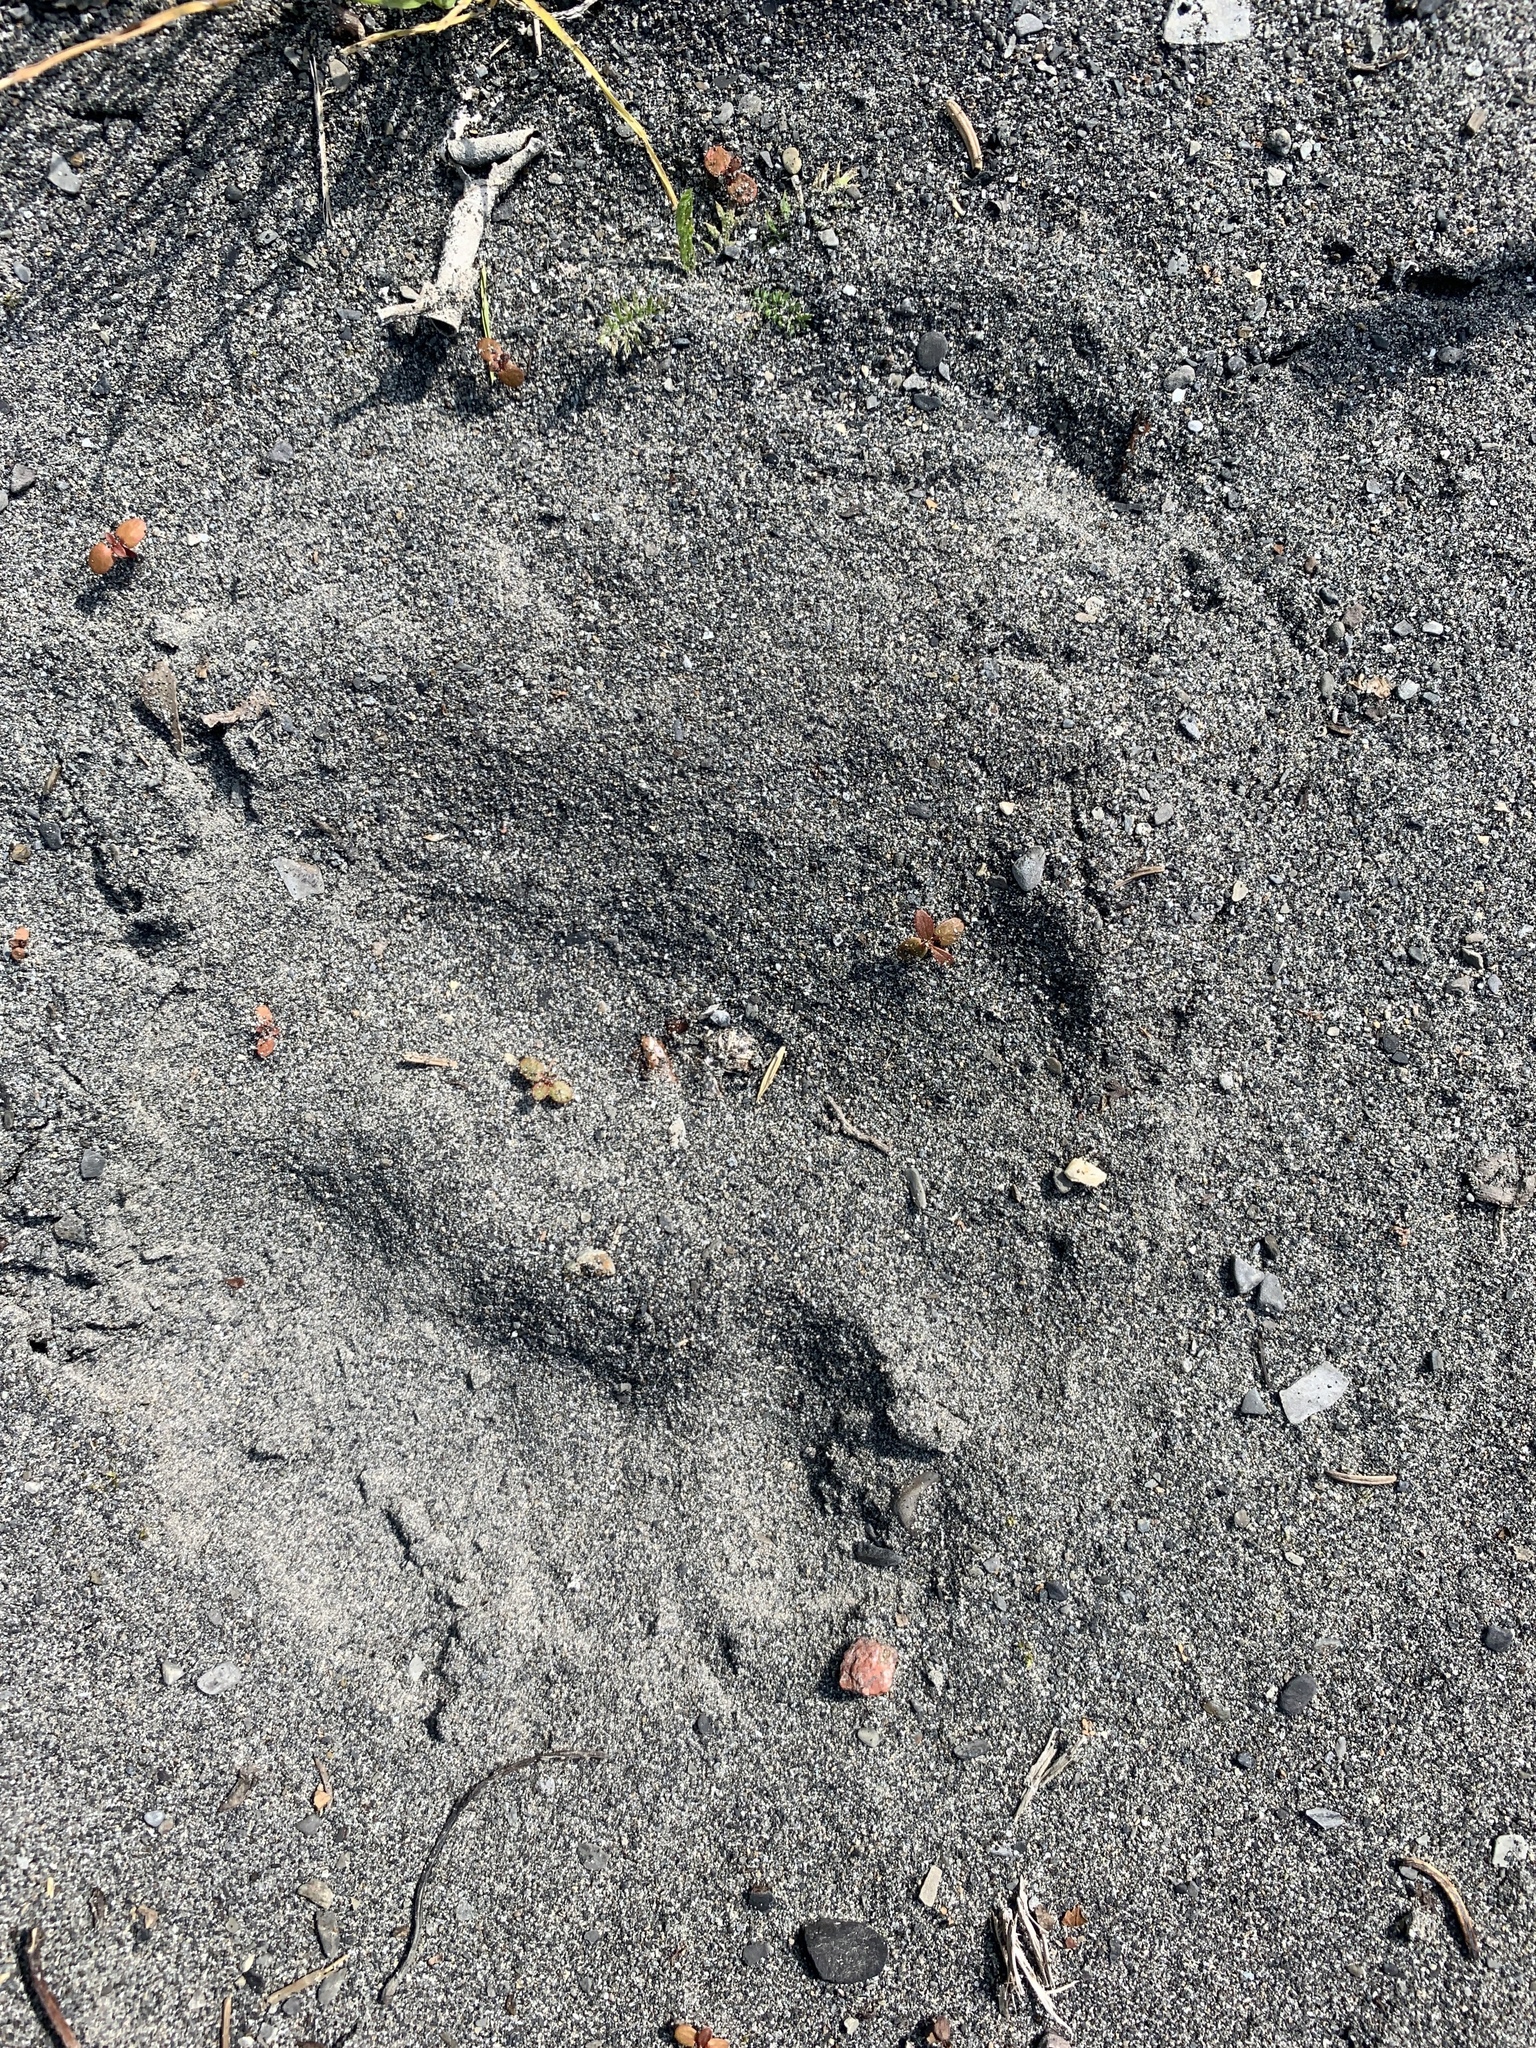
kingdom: Animalia
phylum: Chordata
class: Mammalia
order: Carnivora
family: Ursidae
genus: Ursus
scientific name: Ursus americanus
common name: American black bear
